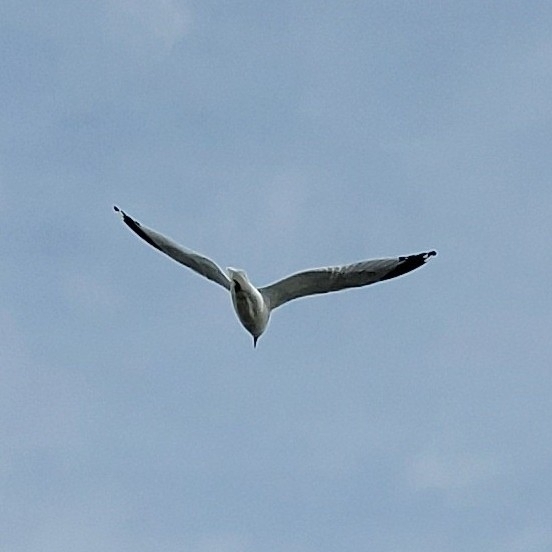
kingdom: Animalia
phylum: Chordata
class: Aves
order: Charadriiformes
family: Laridae
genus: Larus
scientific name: Larus delawarensis
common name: Ring-billed gull
